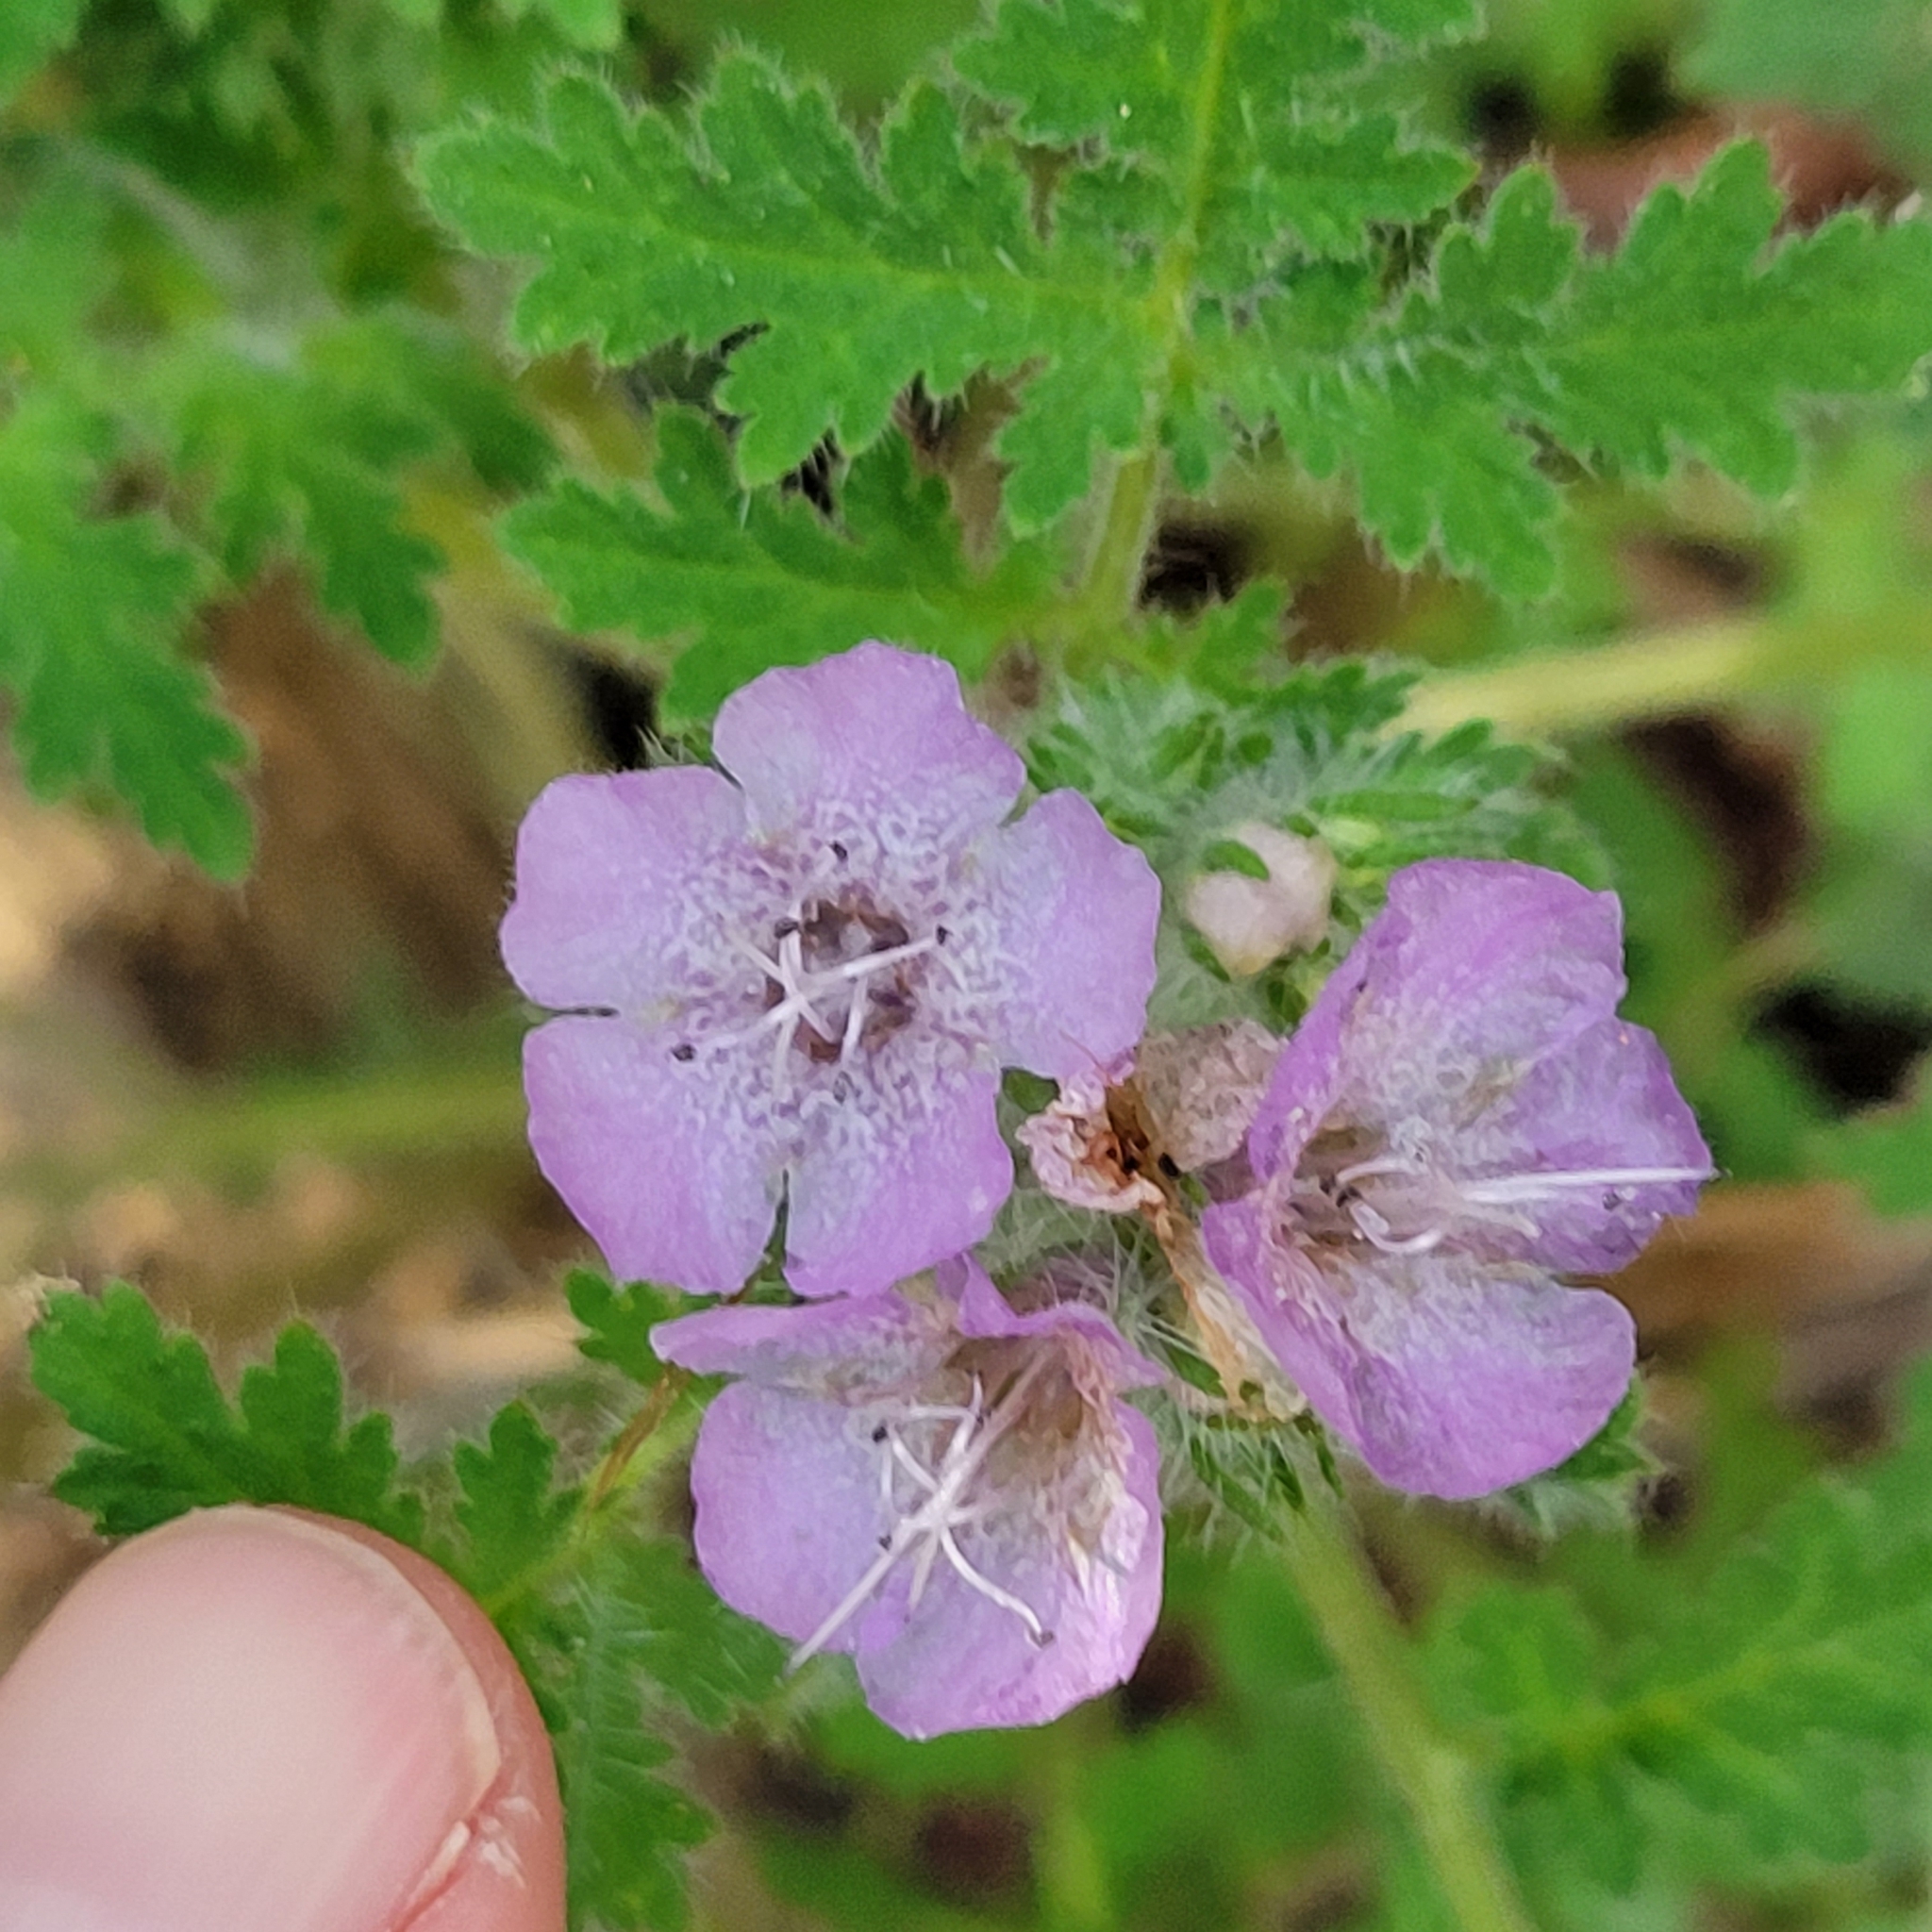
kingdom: Plantae
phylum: Tracheophyta
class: Magnoliopsida
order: Boraginales
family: Hydrophyllaceae
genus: Phacelia
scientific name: Phacelia cicutaria
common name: Caterpillar phacelia
